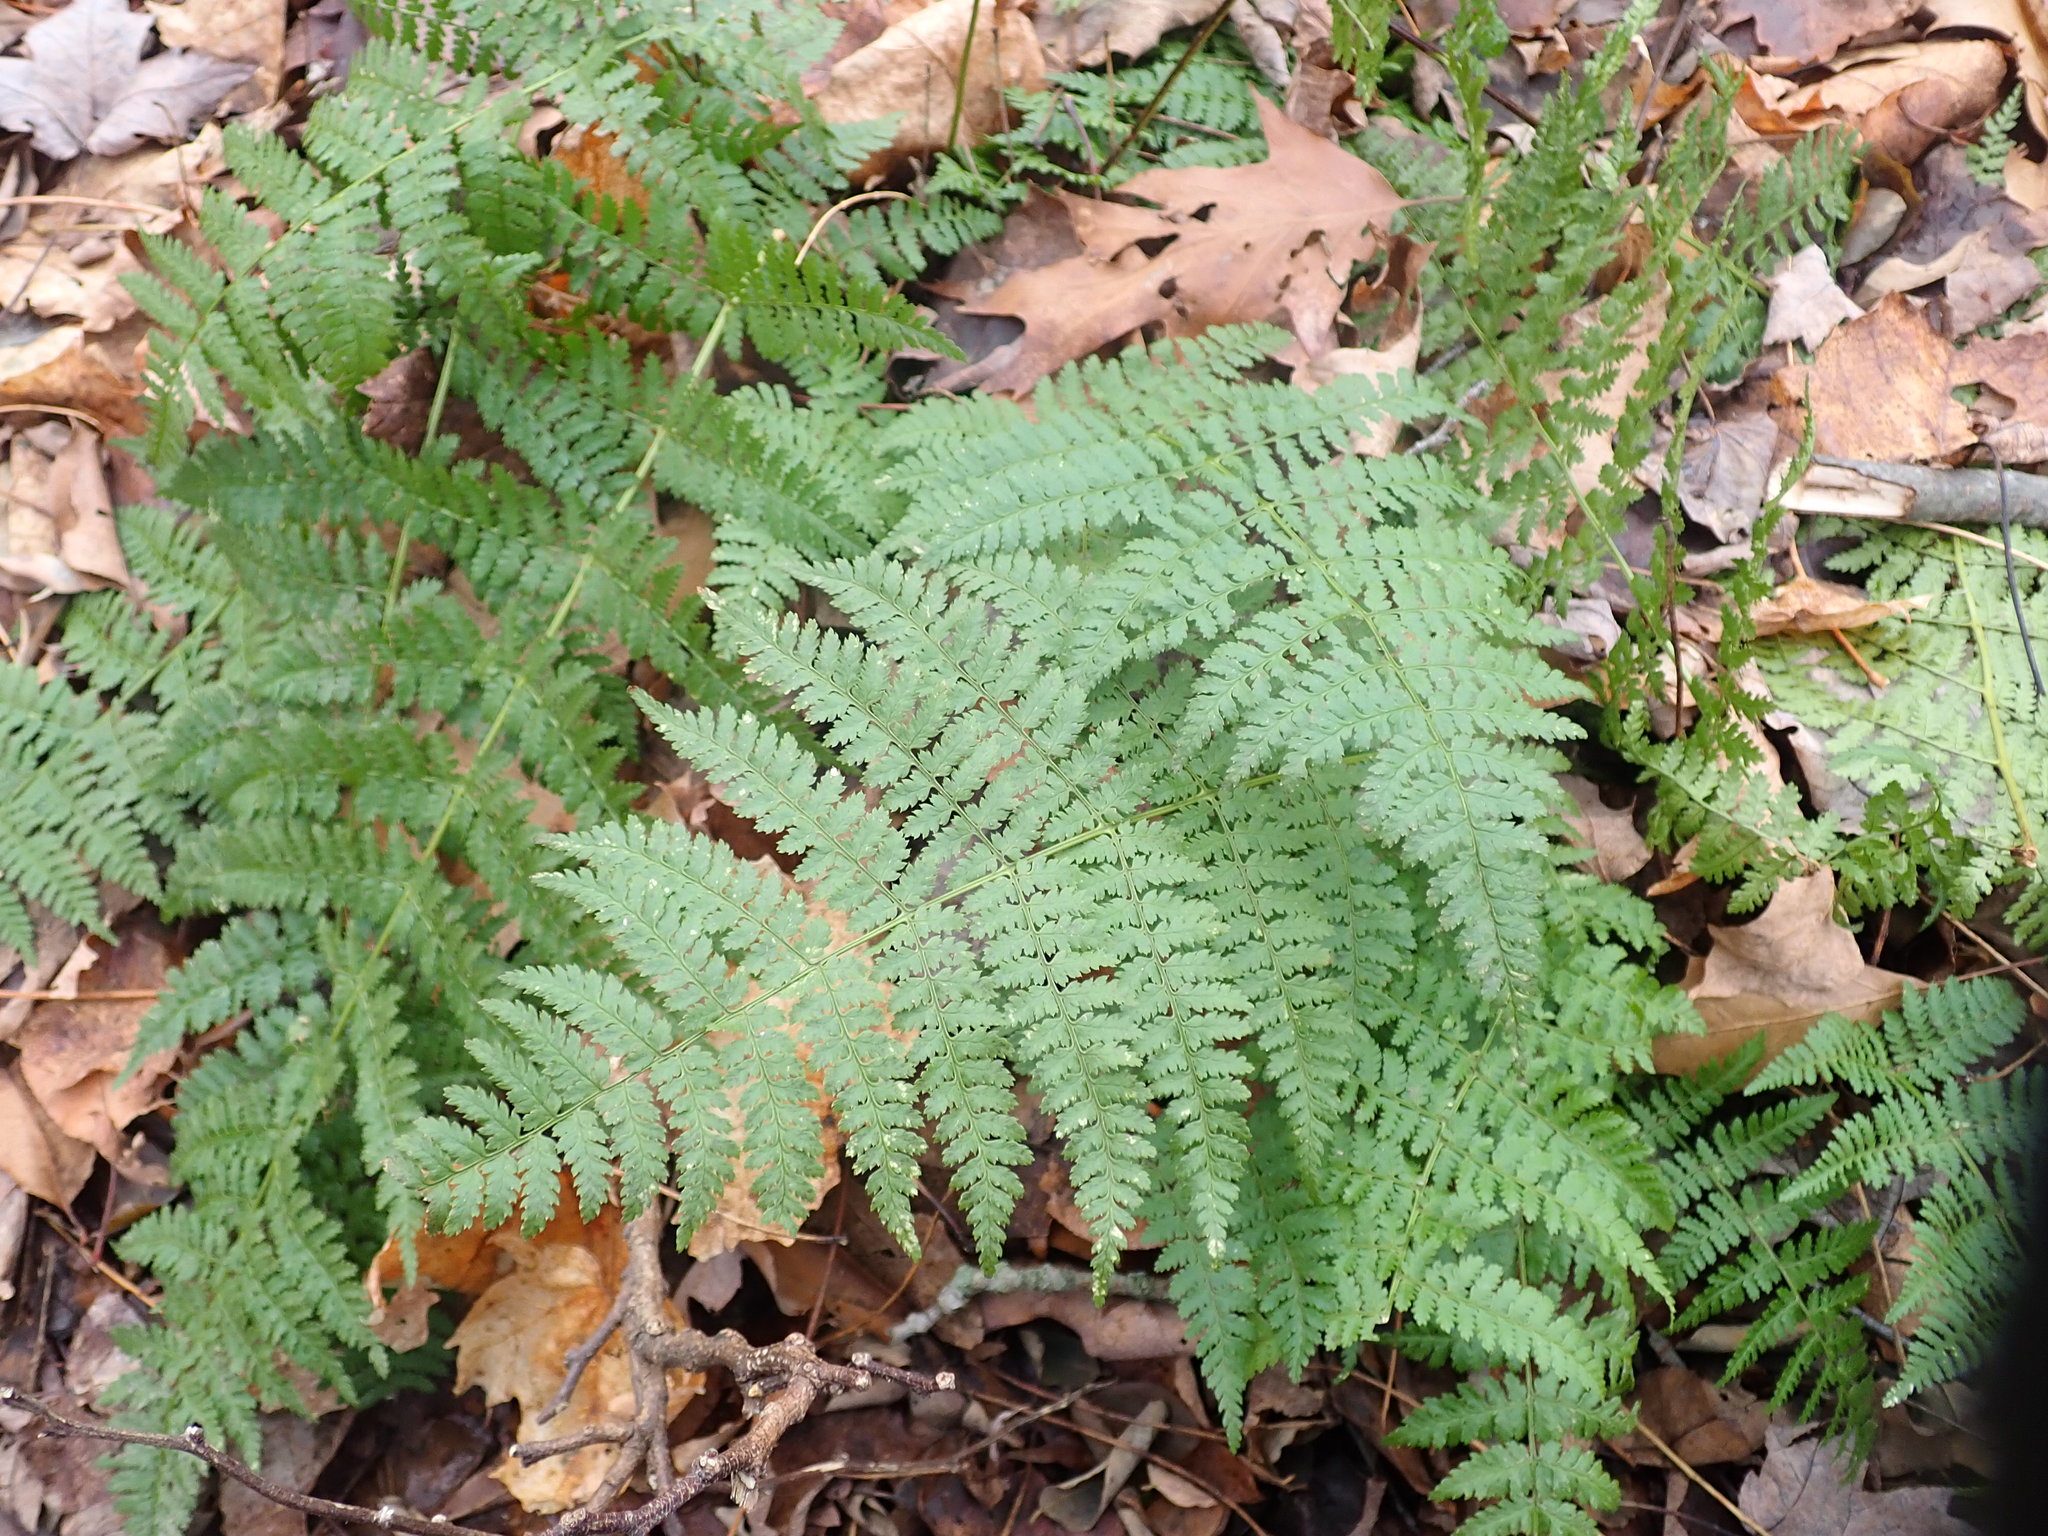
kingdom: Plantae
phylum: Tracheophyta
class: Polypodiopsida
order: Polypodiales
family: Dryopteridaceae
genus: Dryopteris
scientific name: Dryopteris intermedia
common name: Evergreen wood fern
